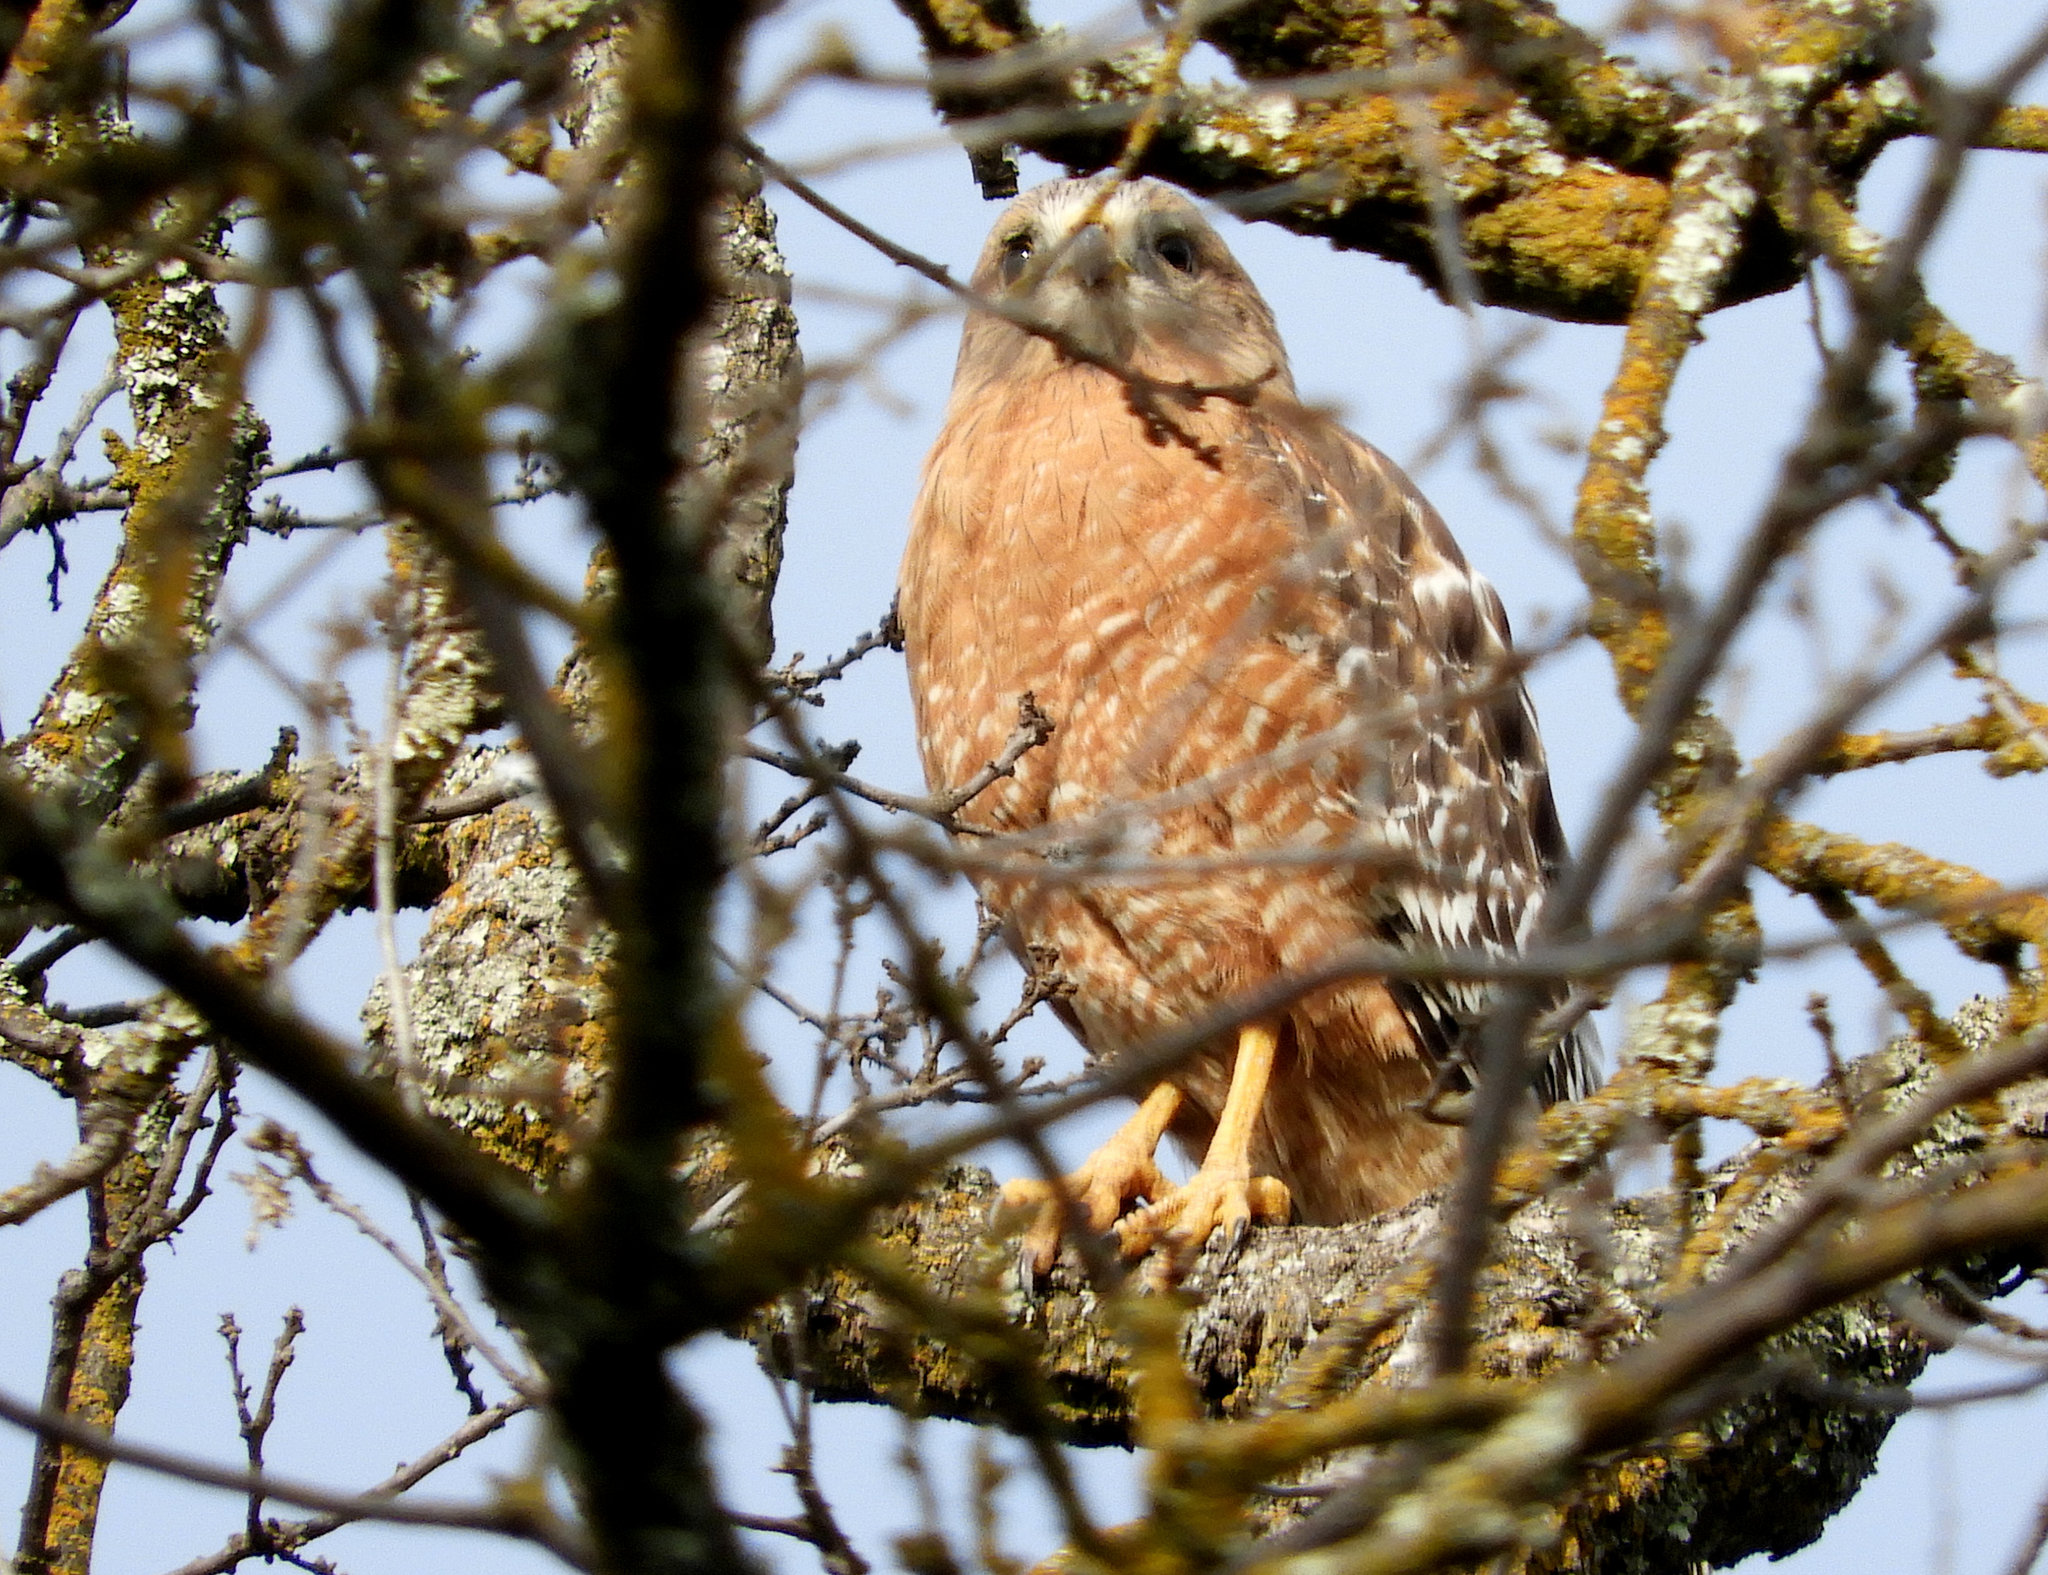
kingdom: Animalia
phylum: Chordata
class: Aves
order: Accipitriformes
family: Accipitridae
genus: Buteo
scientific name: Buteo lineatus
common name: Red-shouldered hawk
